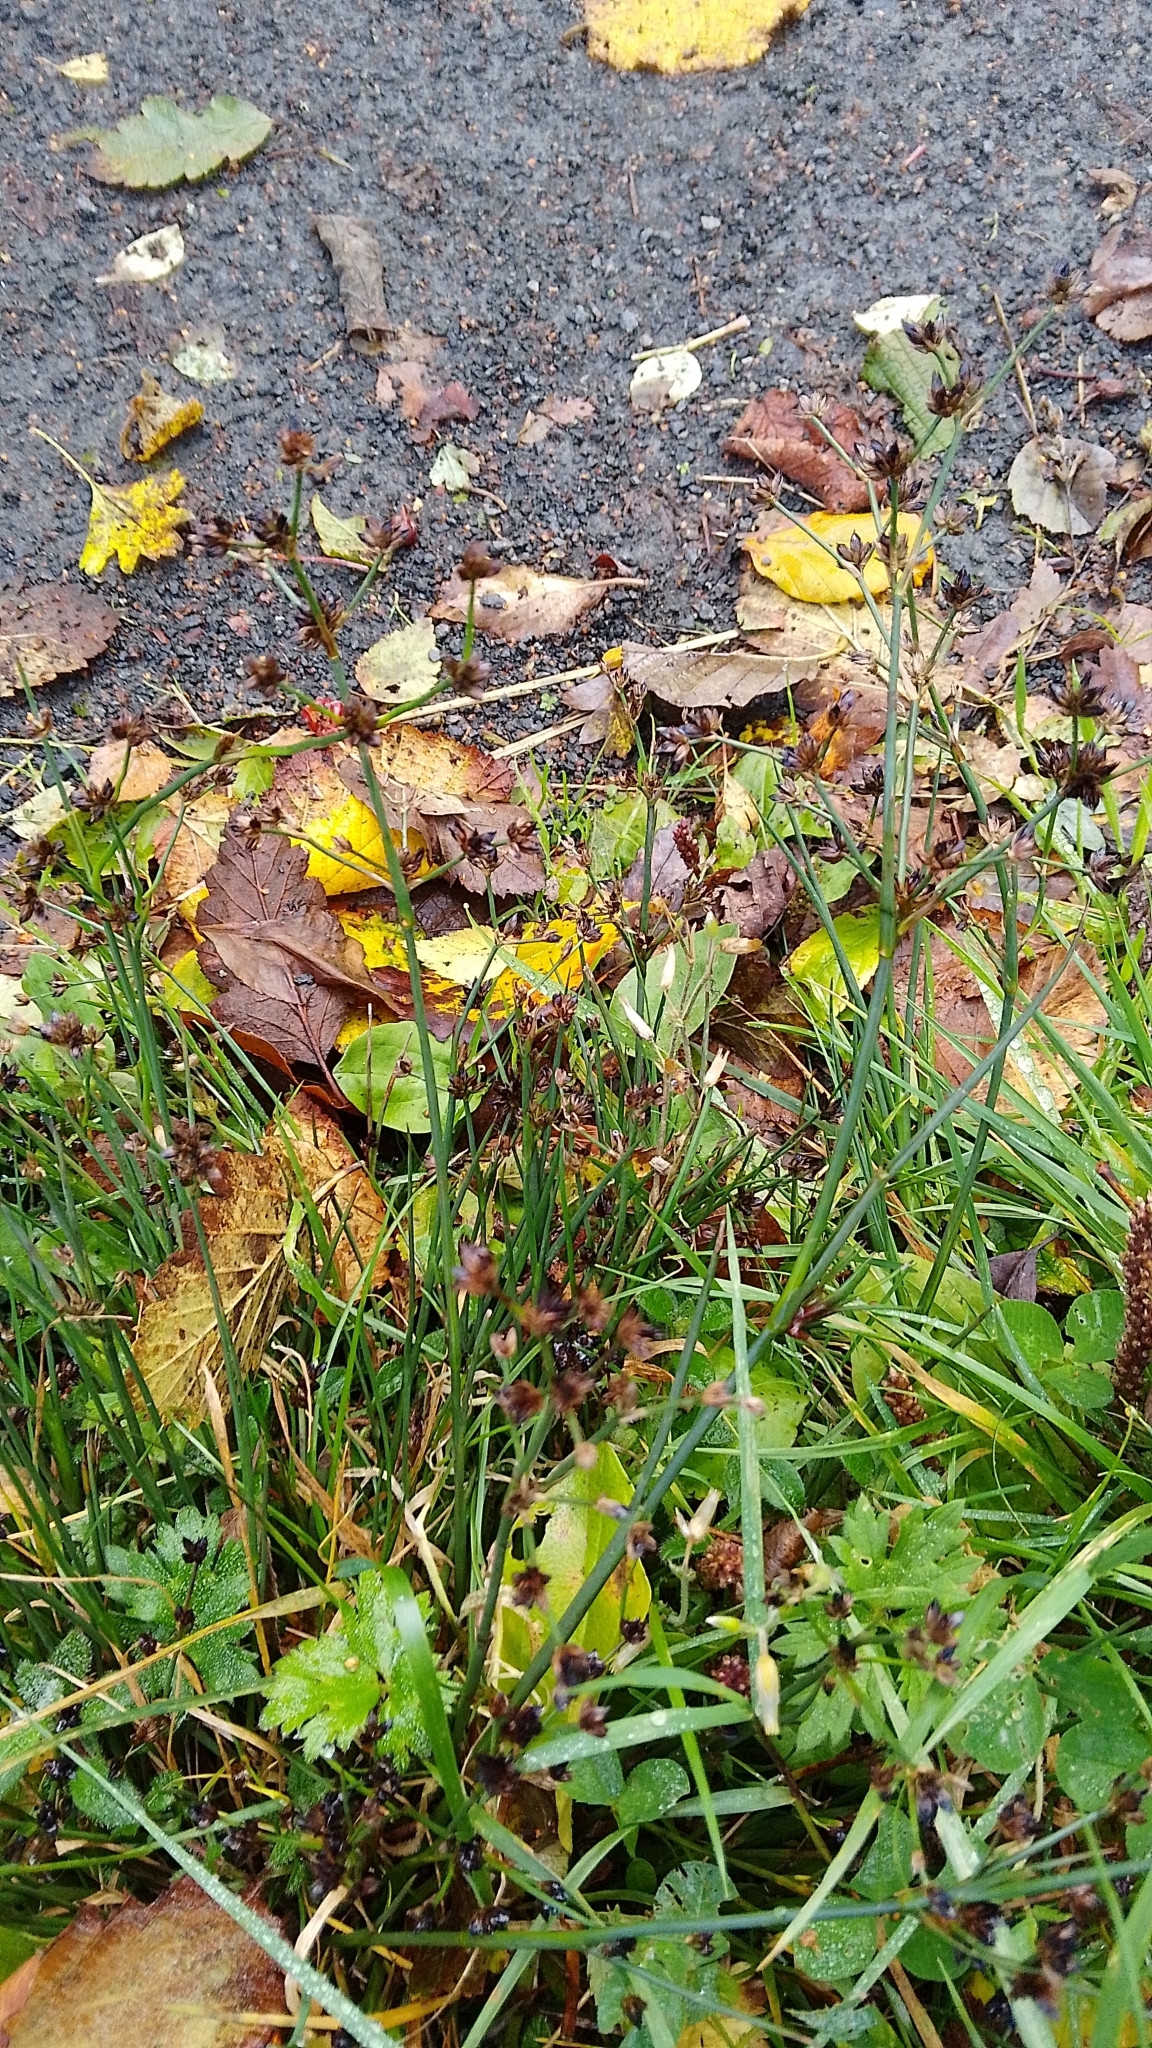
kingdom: Plantae
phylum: Tracheophyta
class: Liliopsida
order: Poales
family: Juncaceae
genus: Juncus
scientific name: Juncus articulatus
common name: Jointed rush
